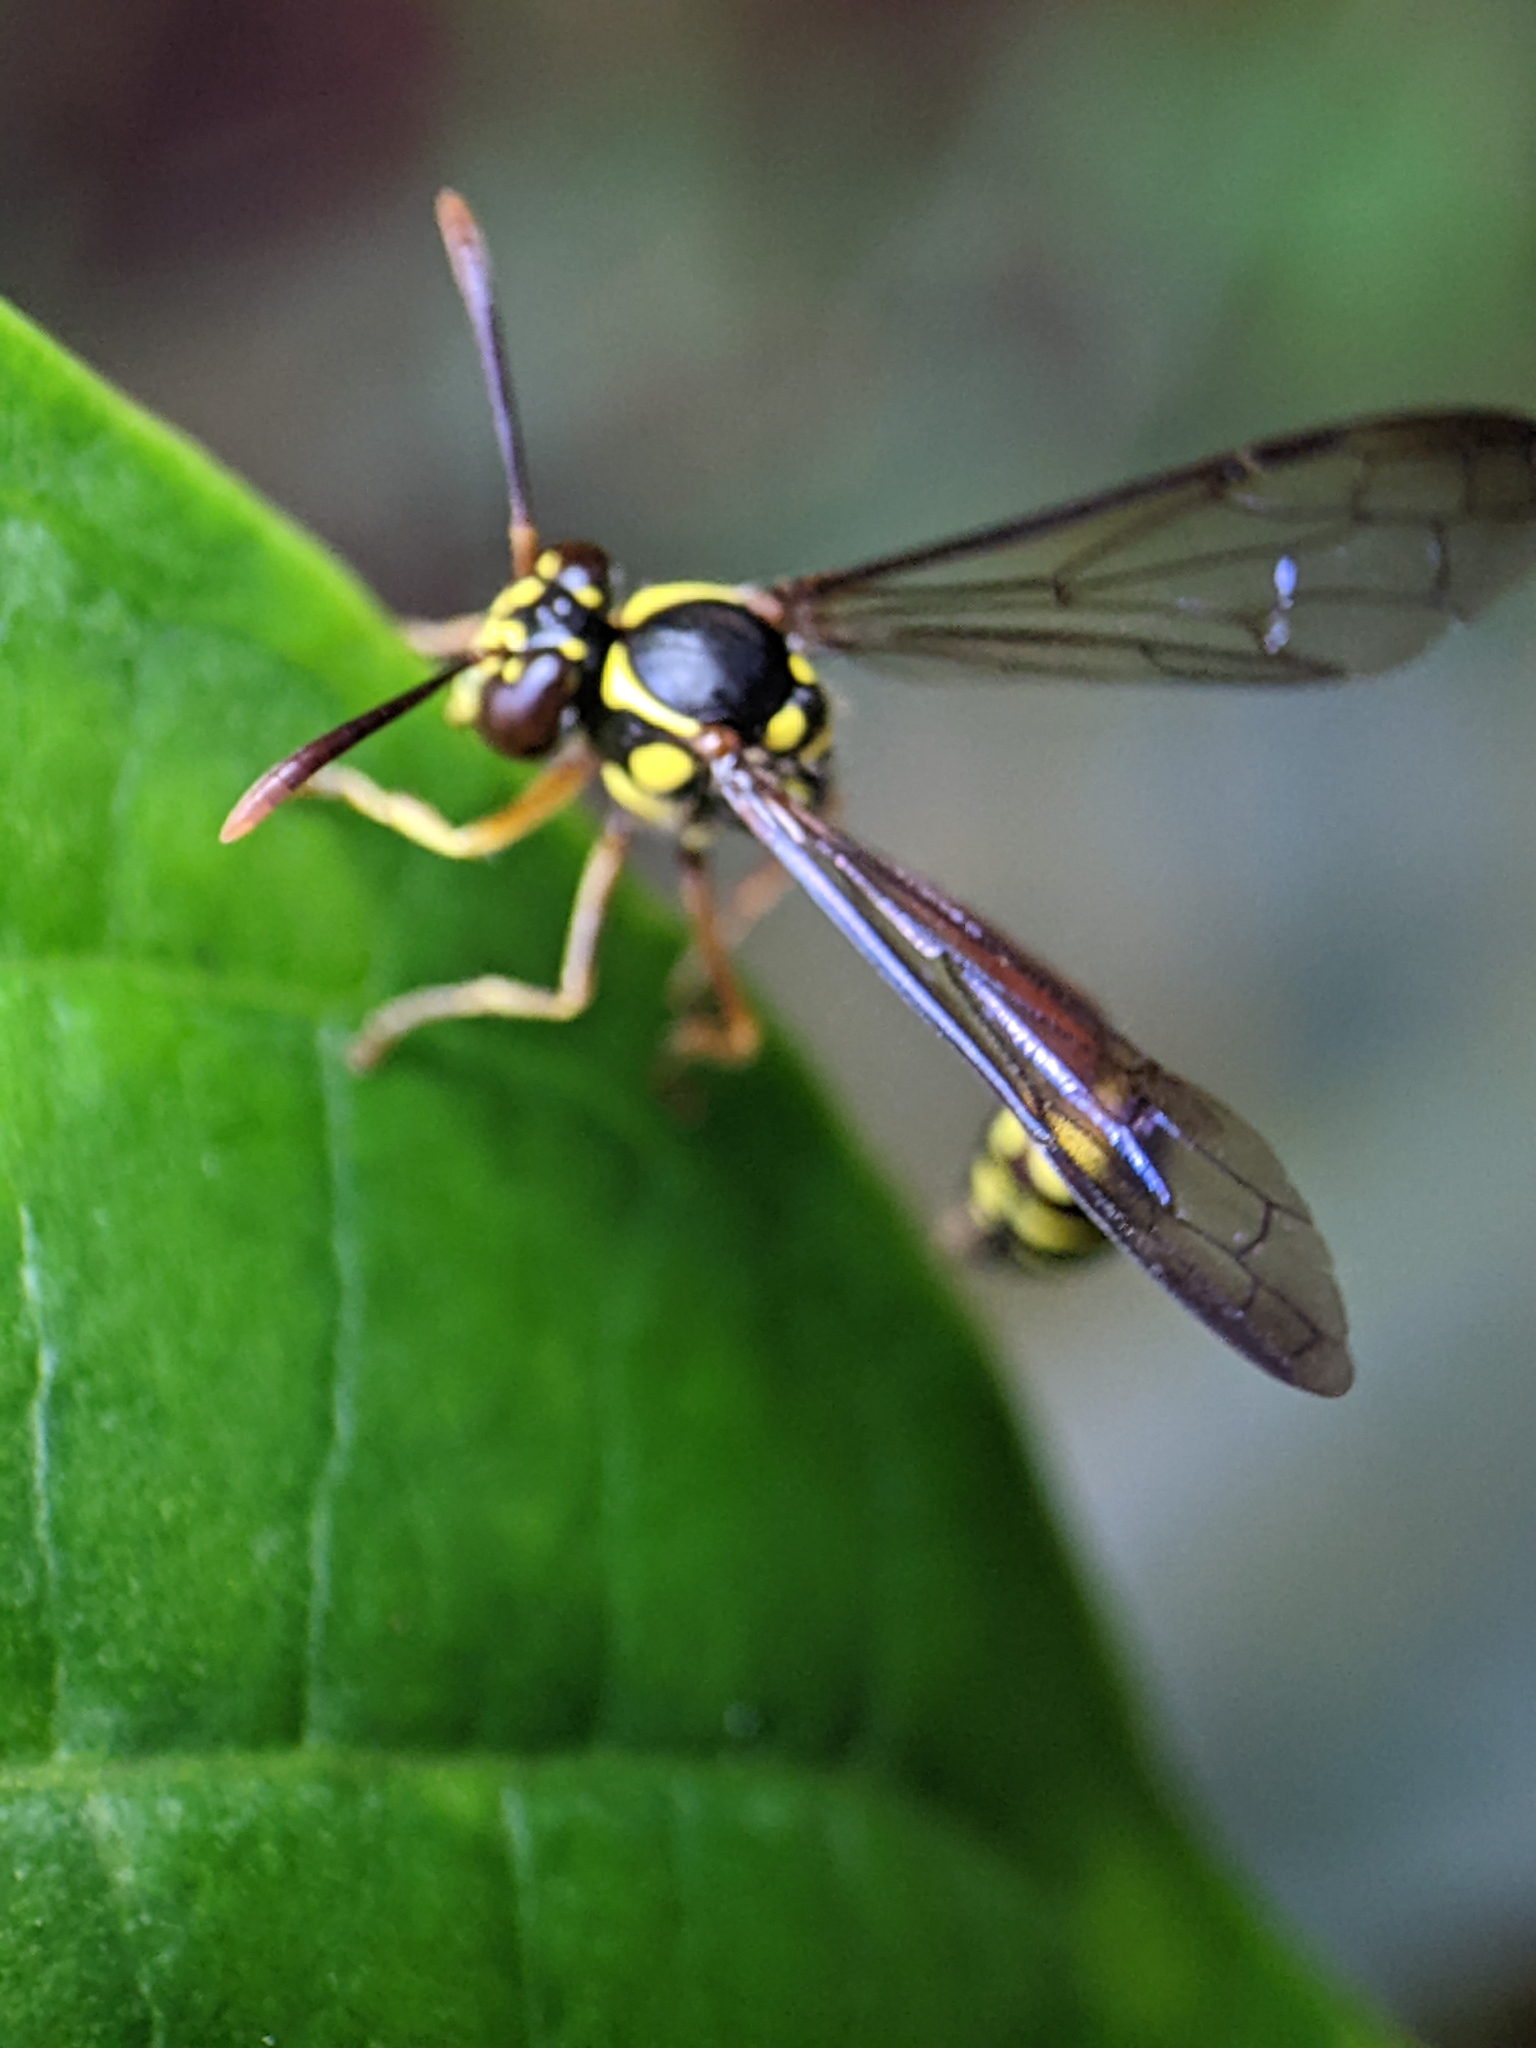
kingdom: Animalia
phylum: Arthropoda
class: Insecta
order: Hymenoptera
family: Vespidae
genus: Eustenogaster
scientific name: Eustenogaster micans
